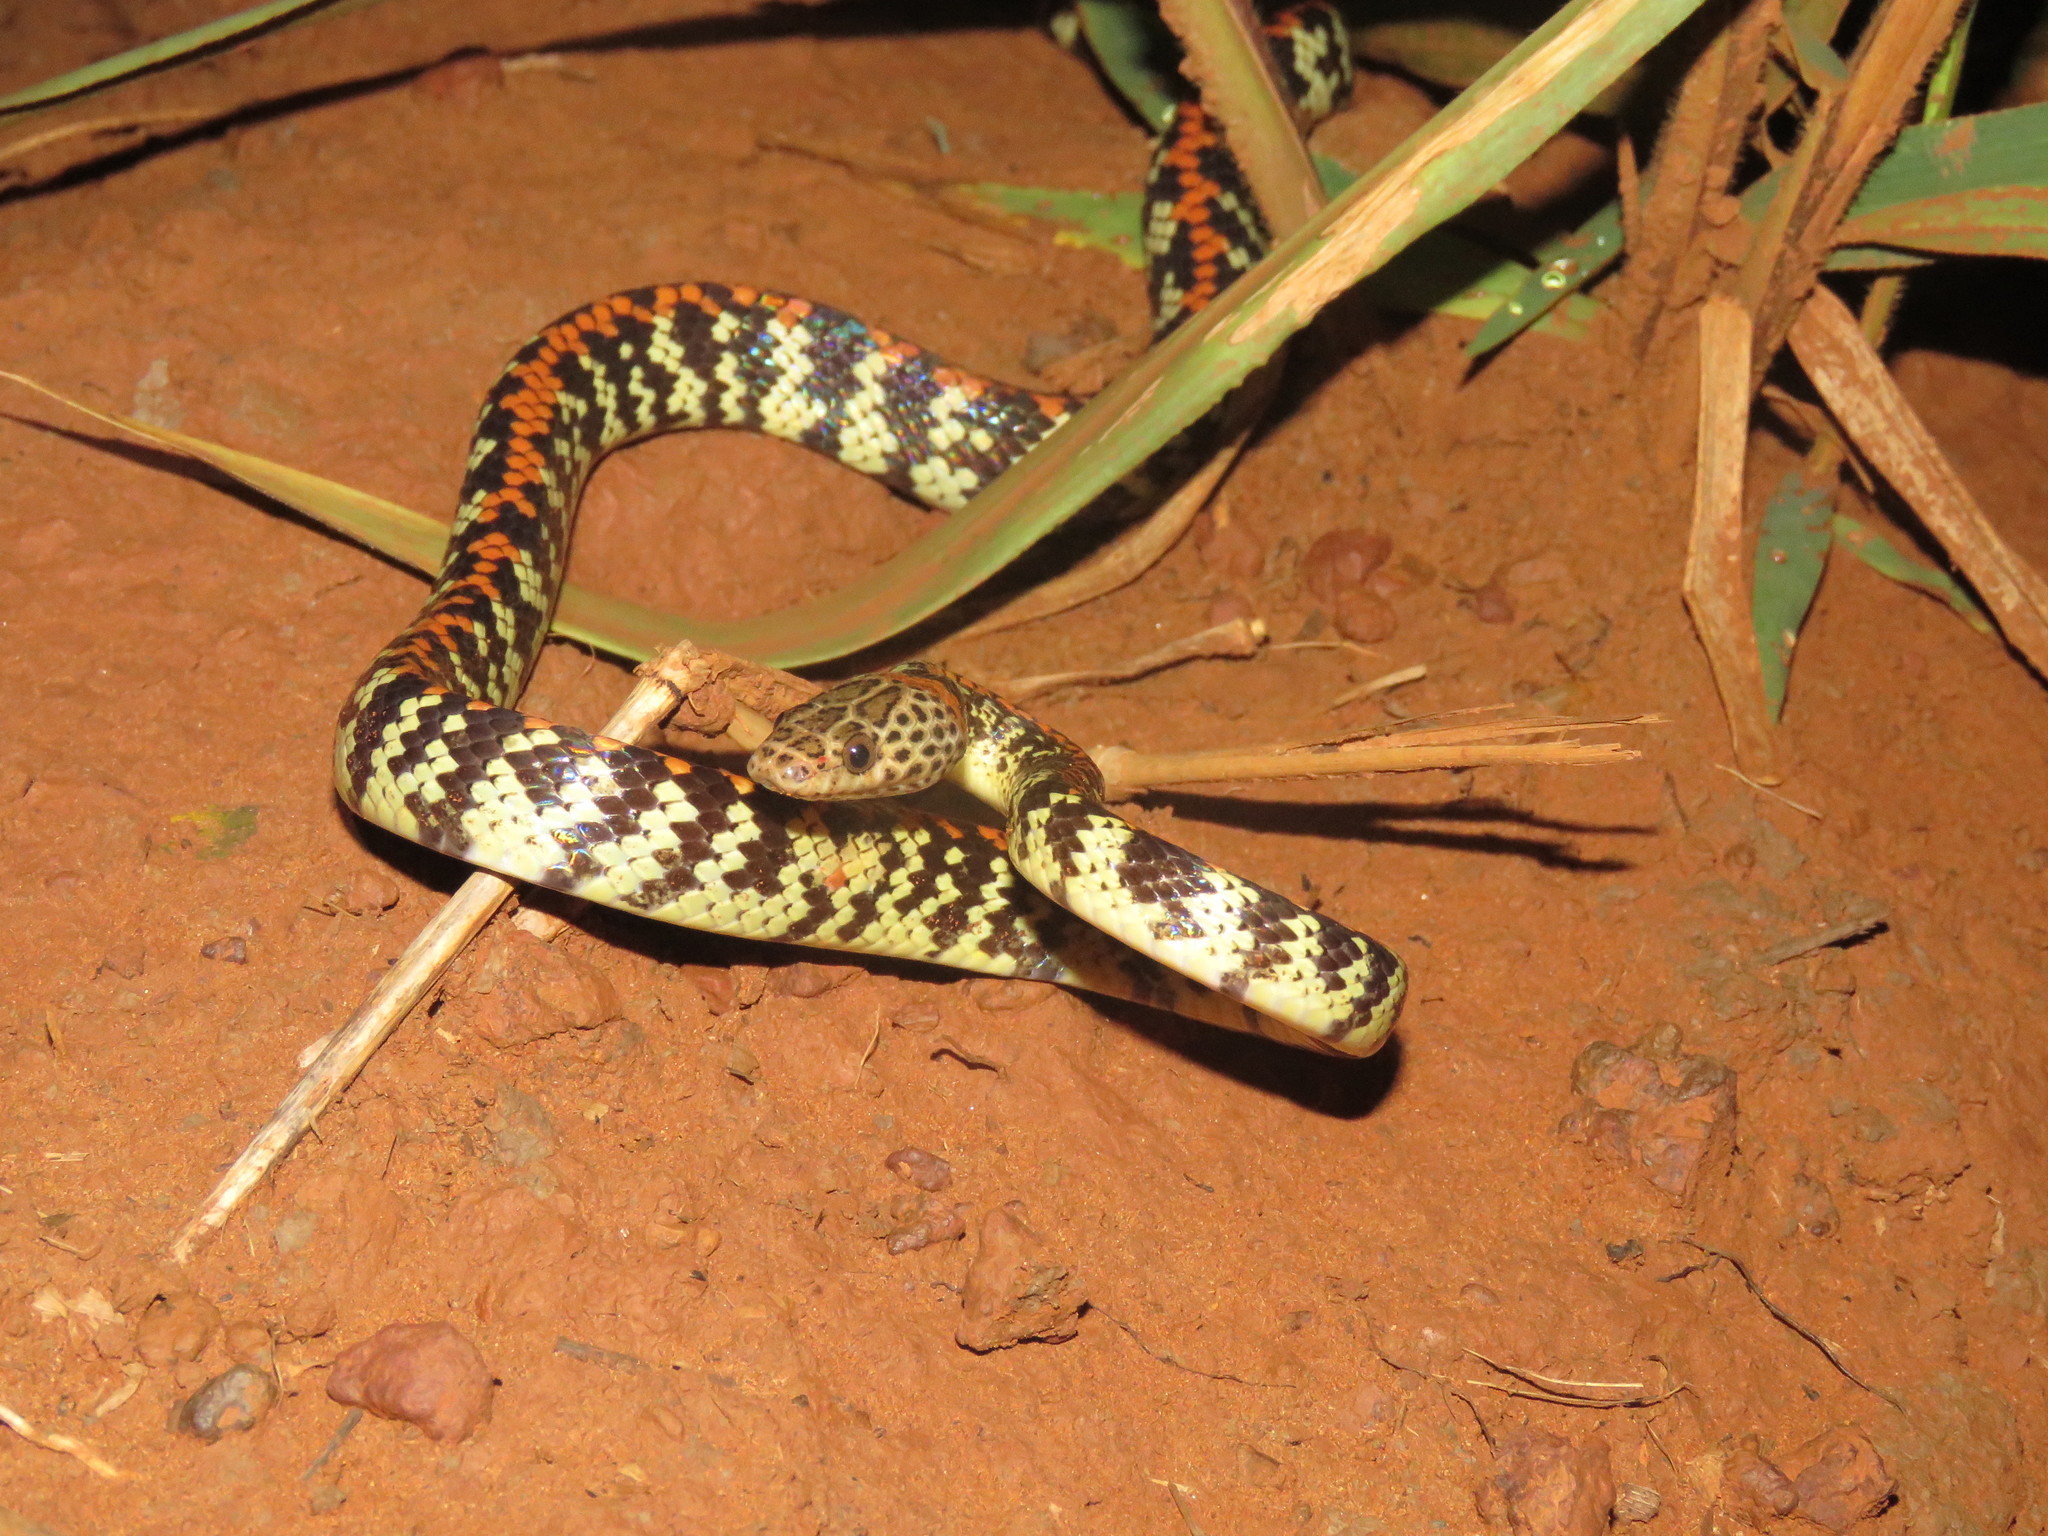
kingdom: Animalia
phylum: Chordata
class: Squamata
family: Colubridae
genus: Siphlophis
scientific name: Siphlophis cervinus
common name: Panama spotted night snake
